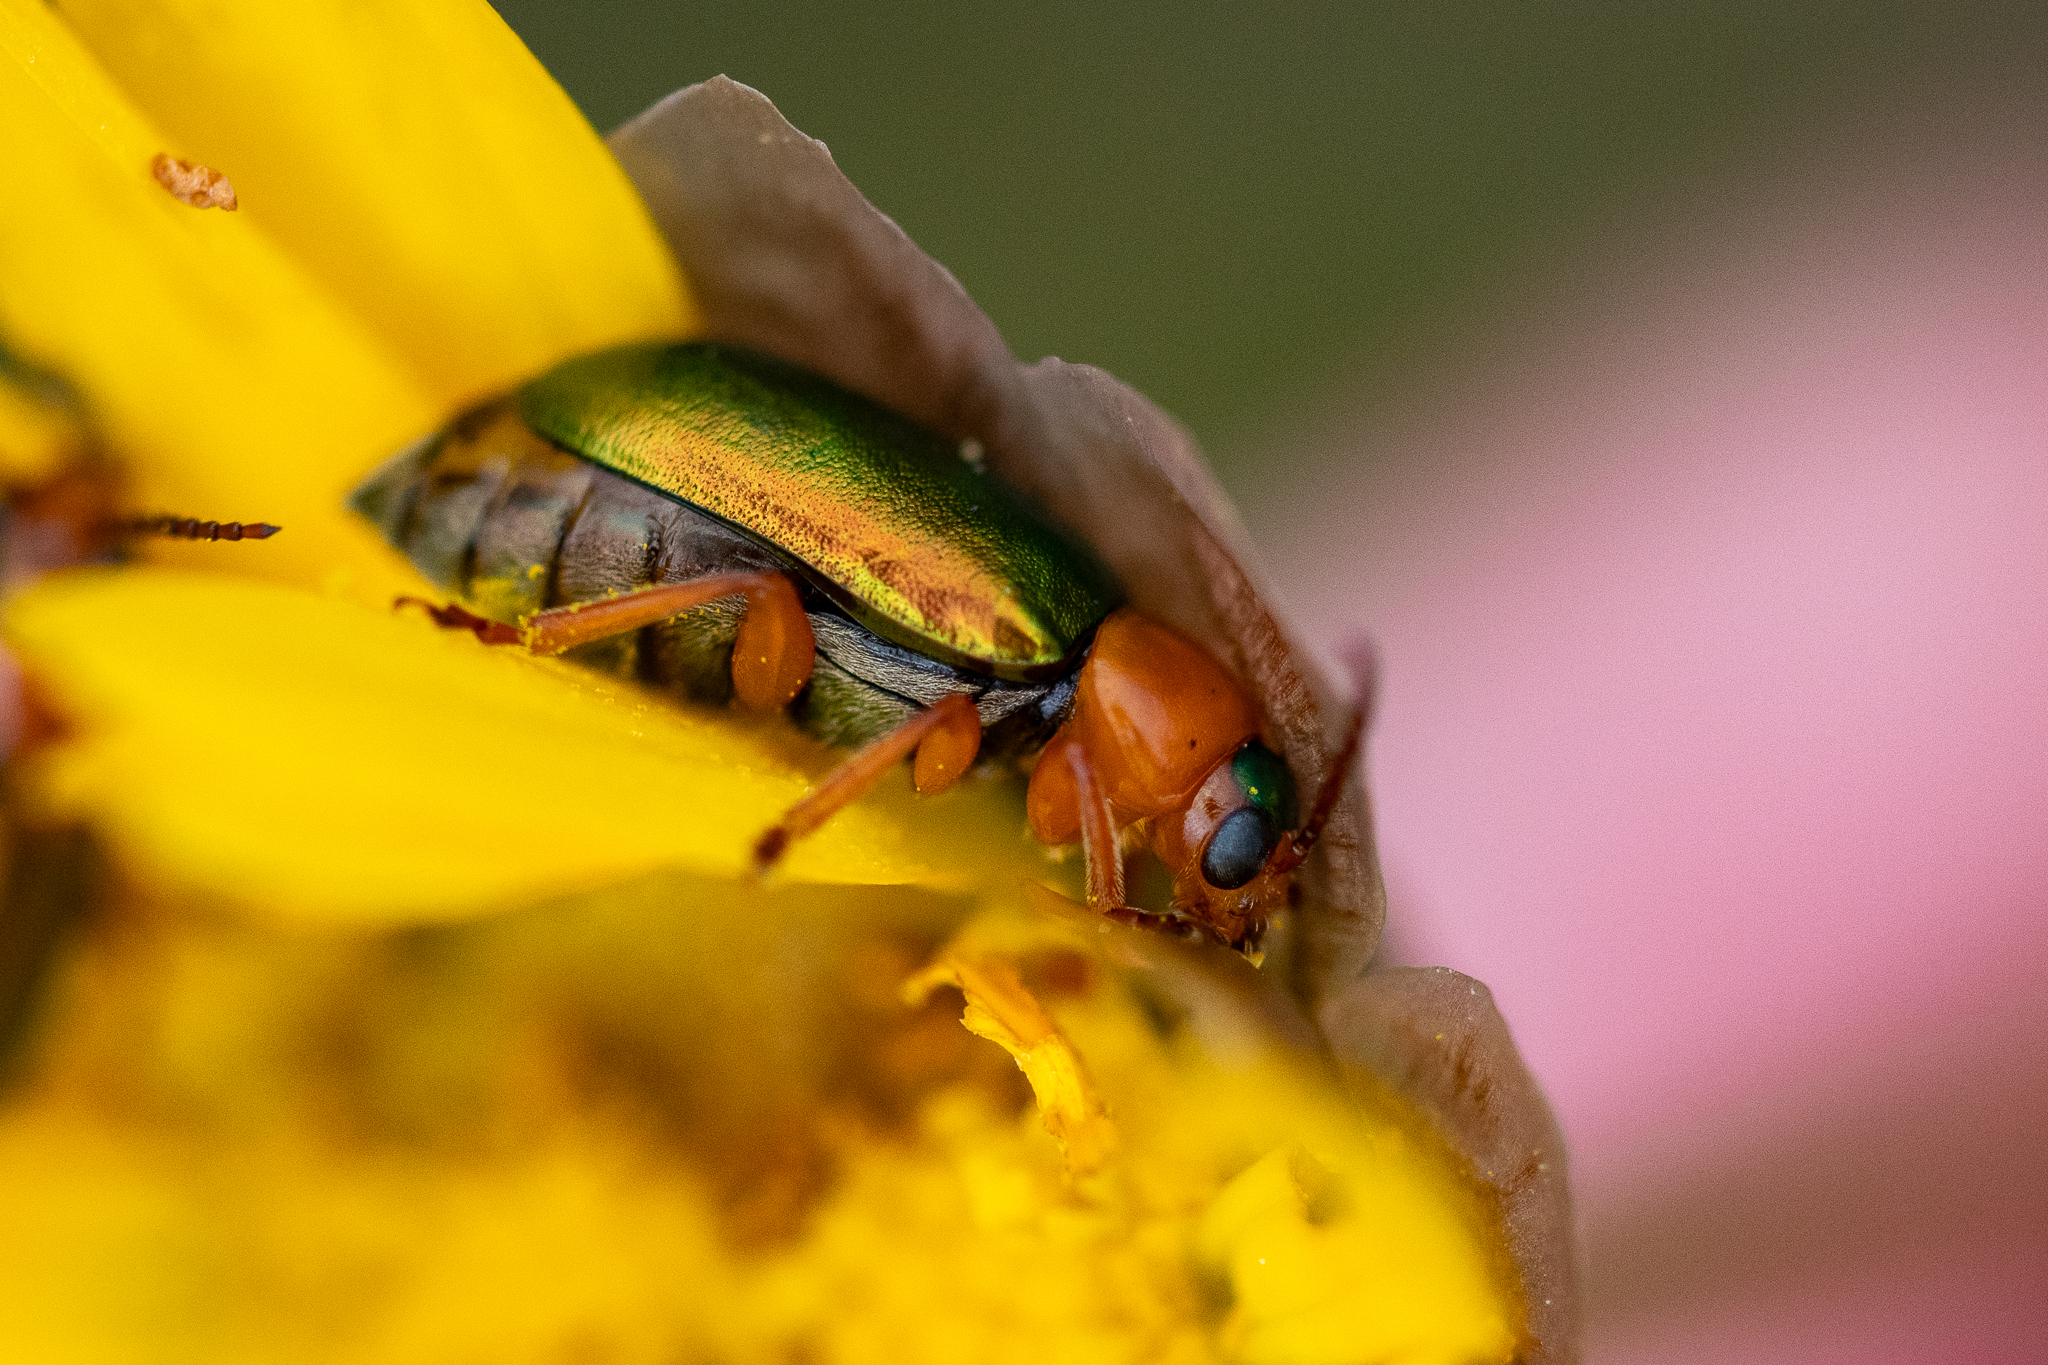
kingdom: Animalia
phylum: Arthropoda
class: Insecta
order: Coleoptera
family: Chrysomelidae
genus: Palaeophylia
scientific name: Palaeophylia
